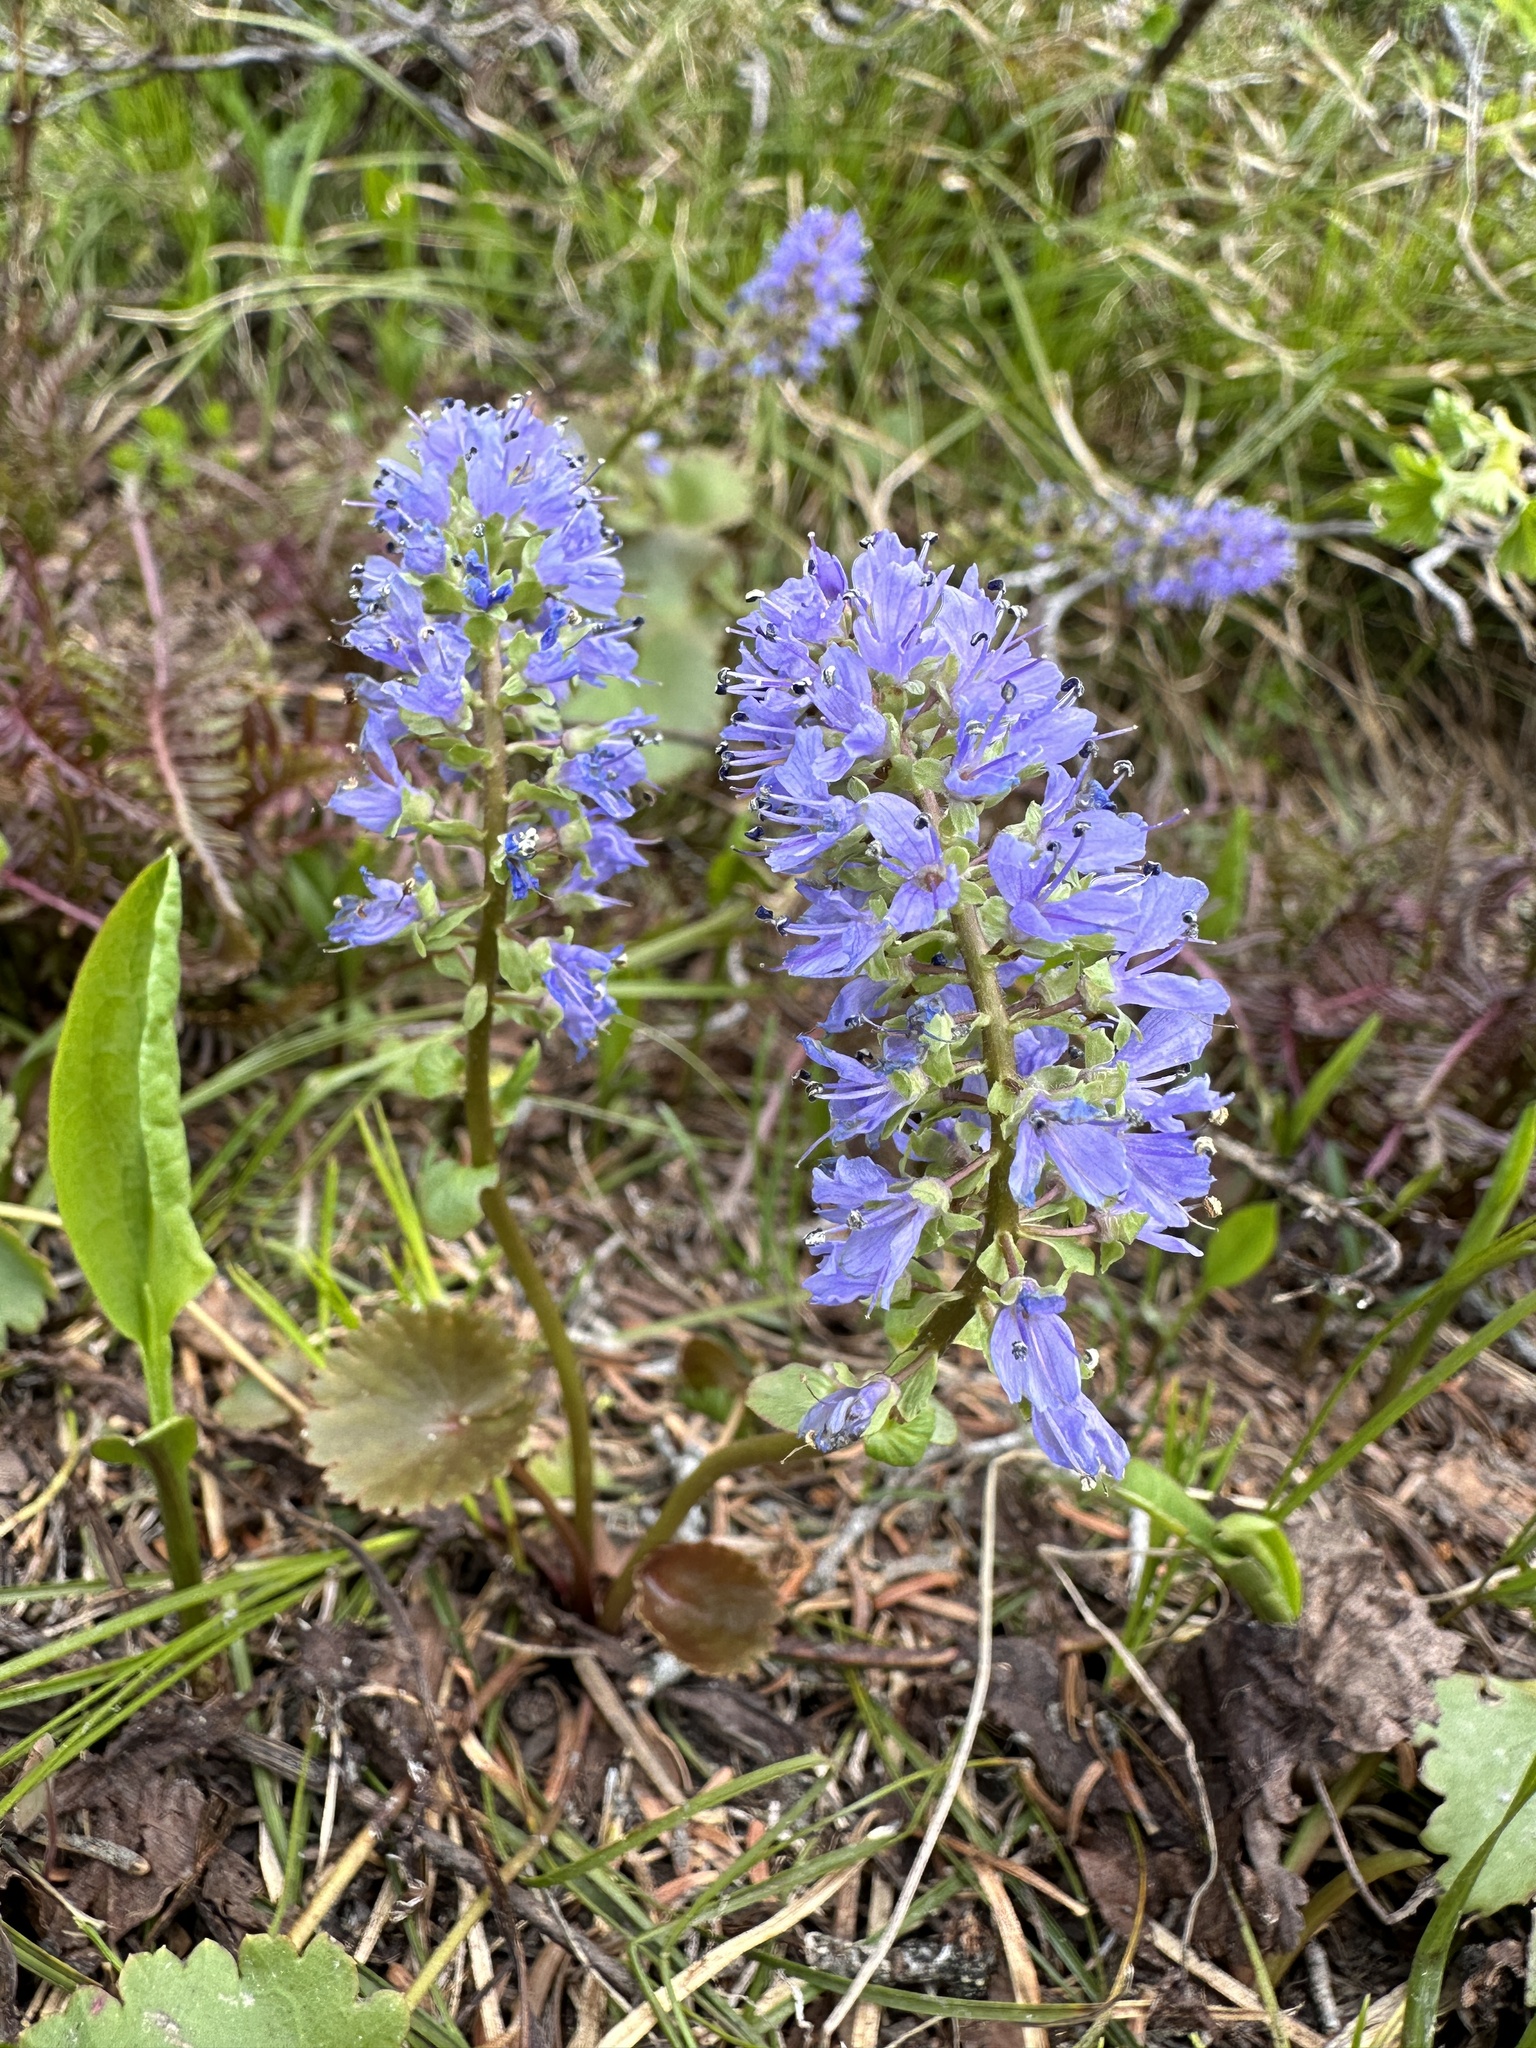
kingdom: Plantae
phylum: Tracheophyta
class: Magnoliopsida
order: Lamiales
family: Plantaginaceae
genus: Synthyris
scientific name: Synthyris missurica
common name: Kitten-tails
